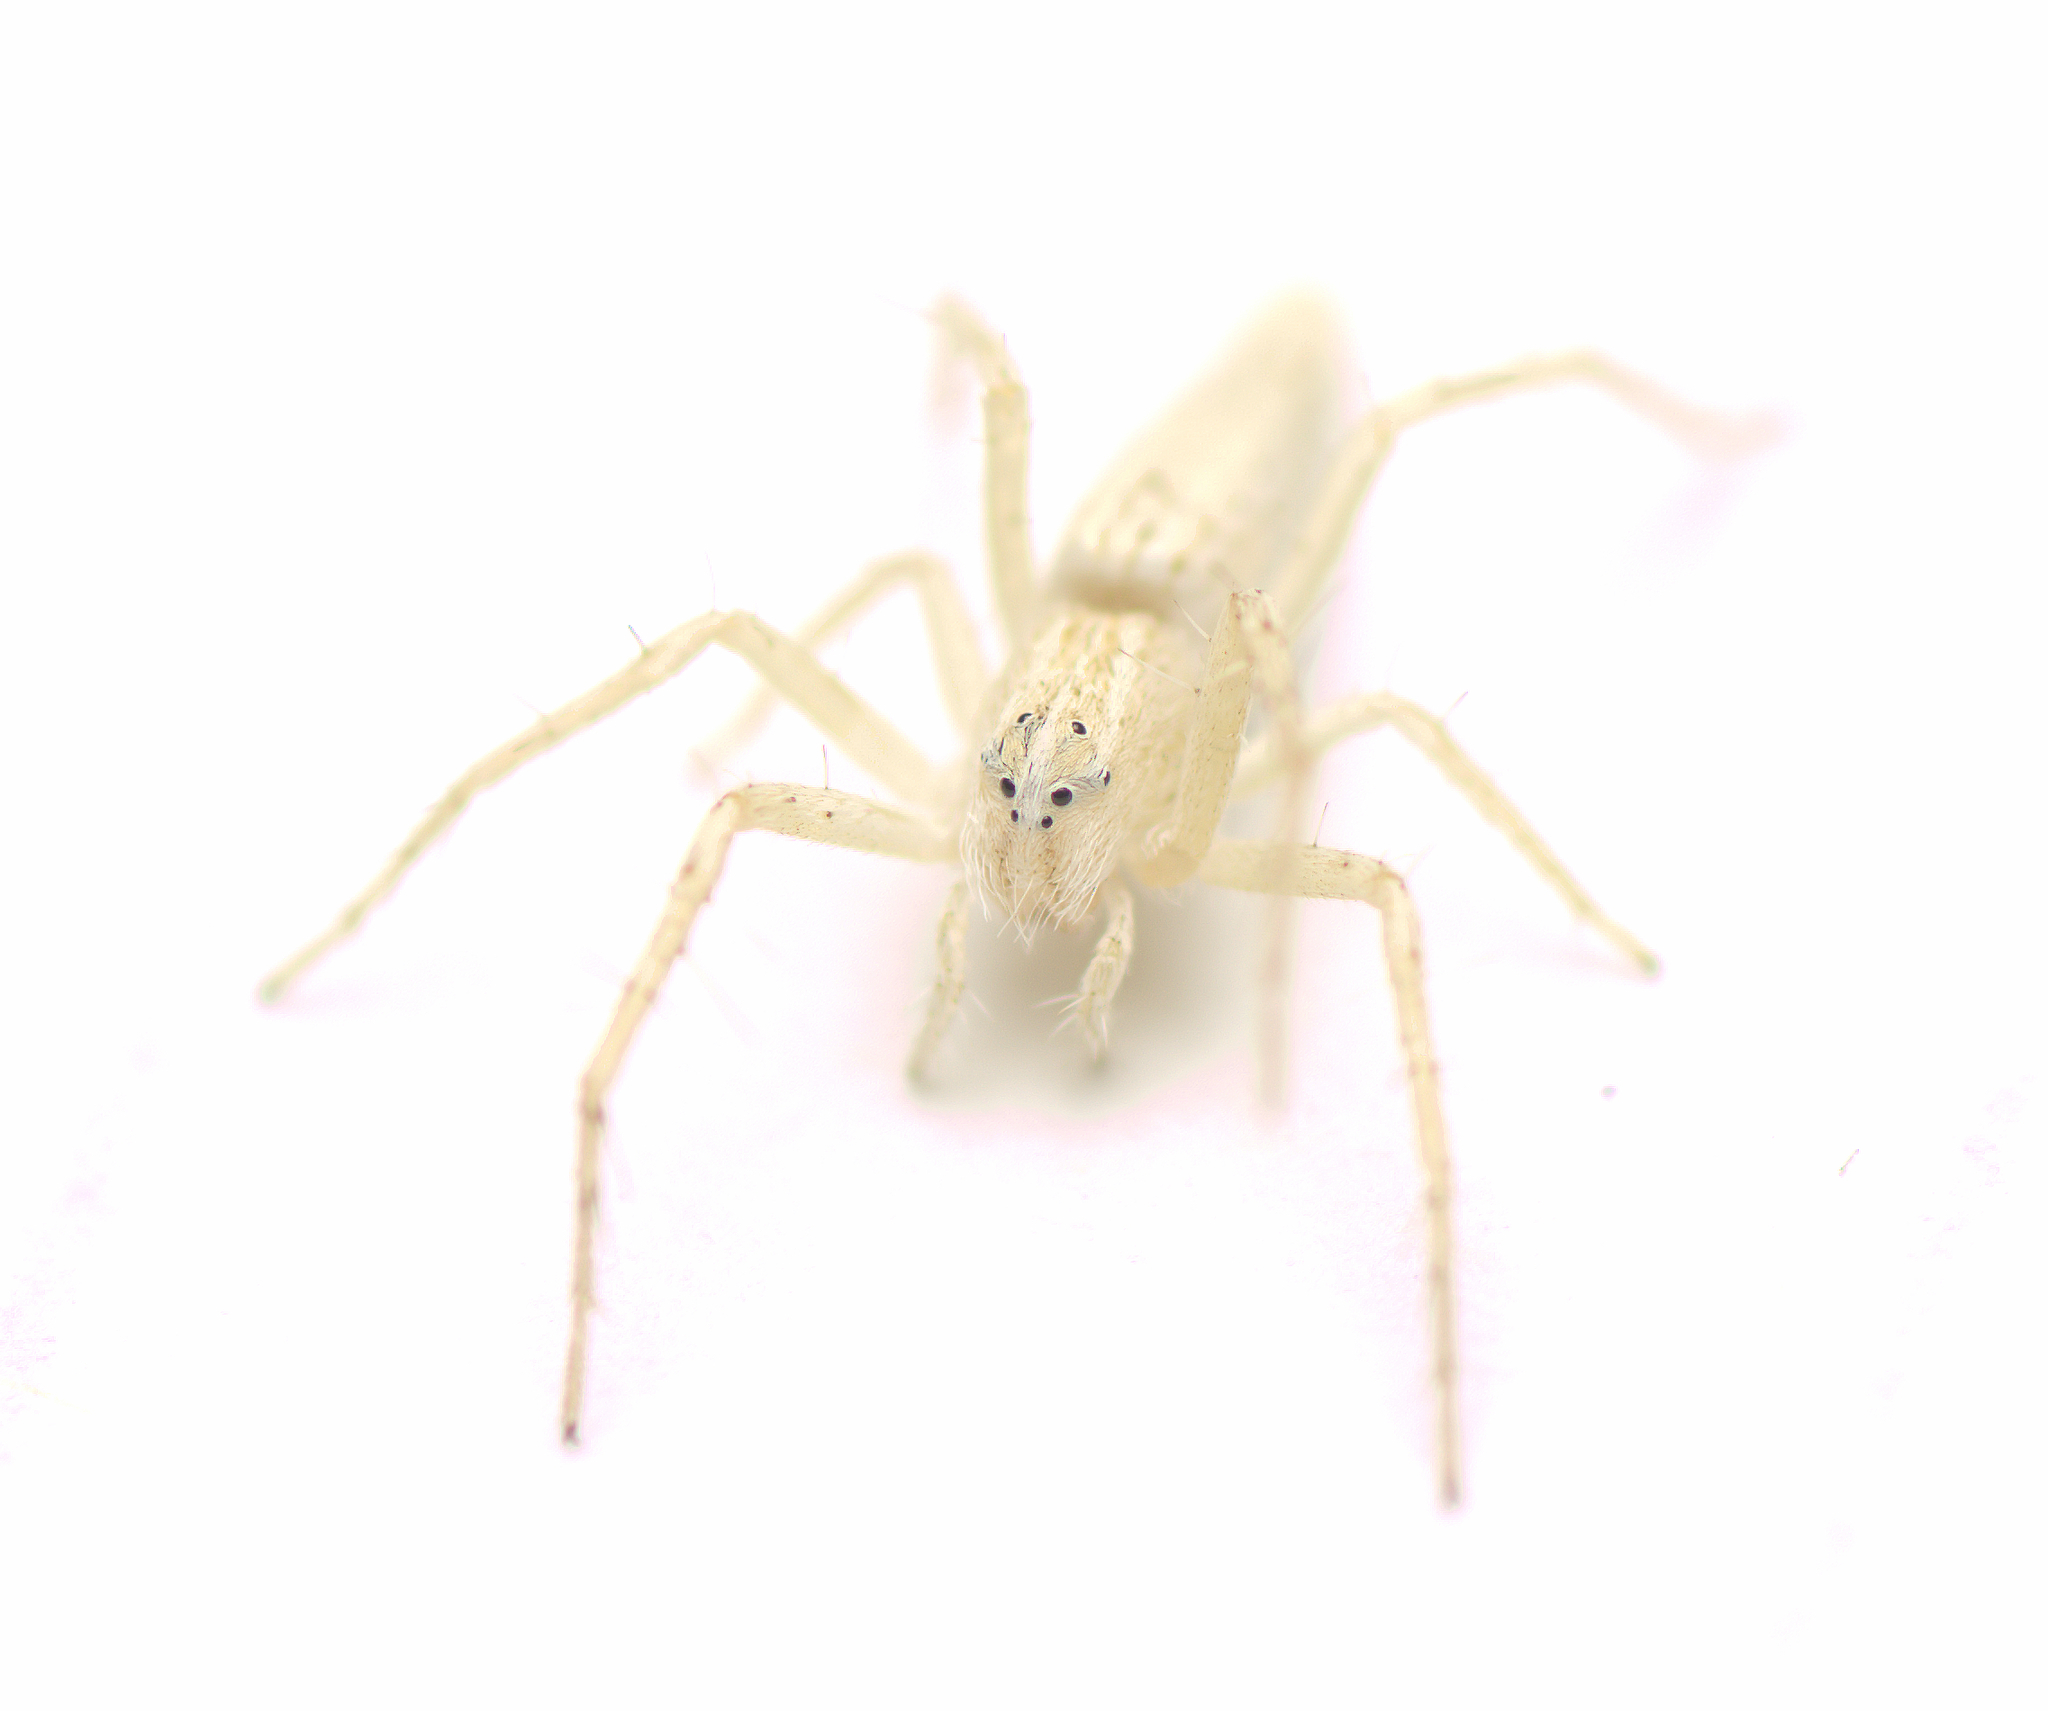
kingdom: Animalia
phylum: Arthropoda
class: Arachnida
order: Araneae
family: Oxyopidae
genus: Oxyopes
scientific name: Oxyopes attenuatus
